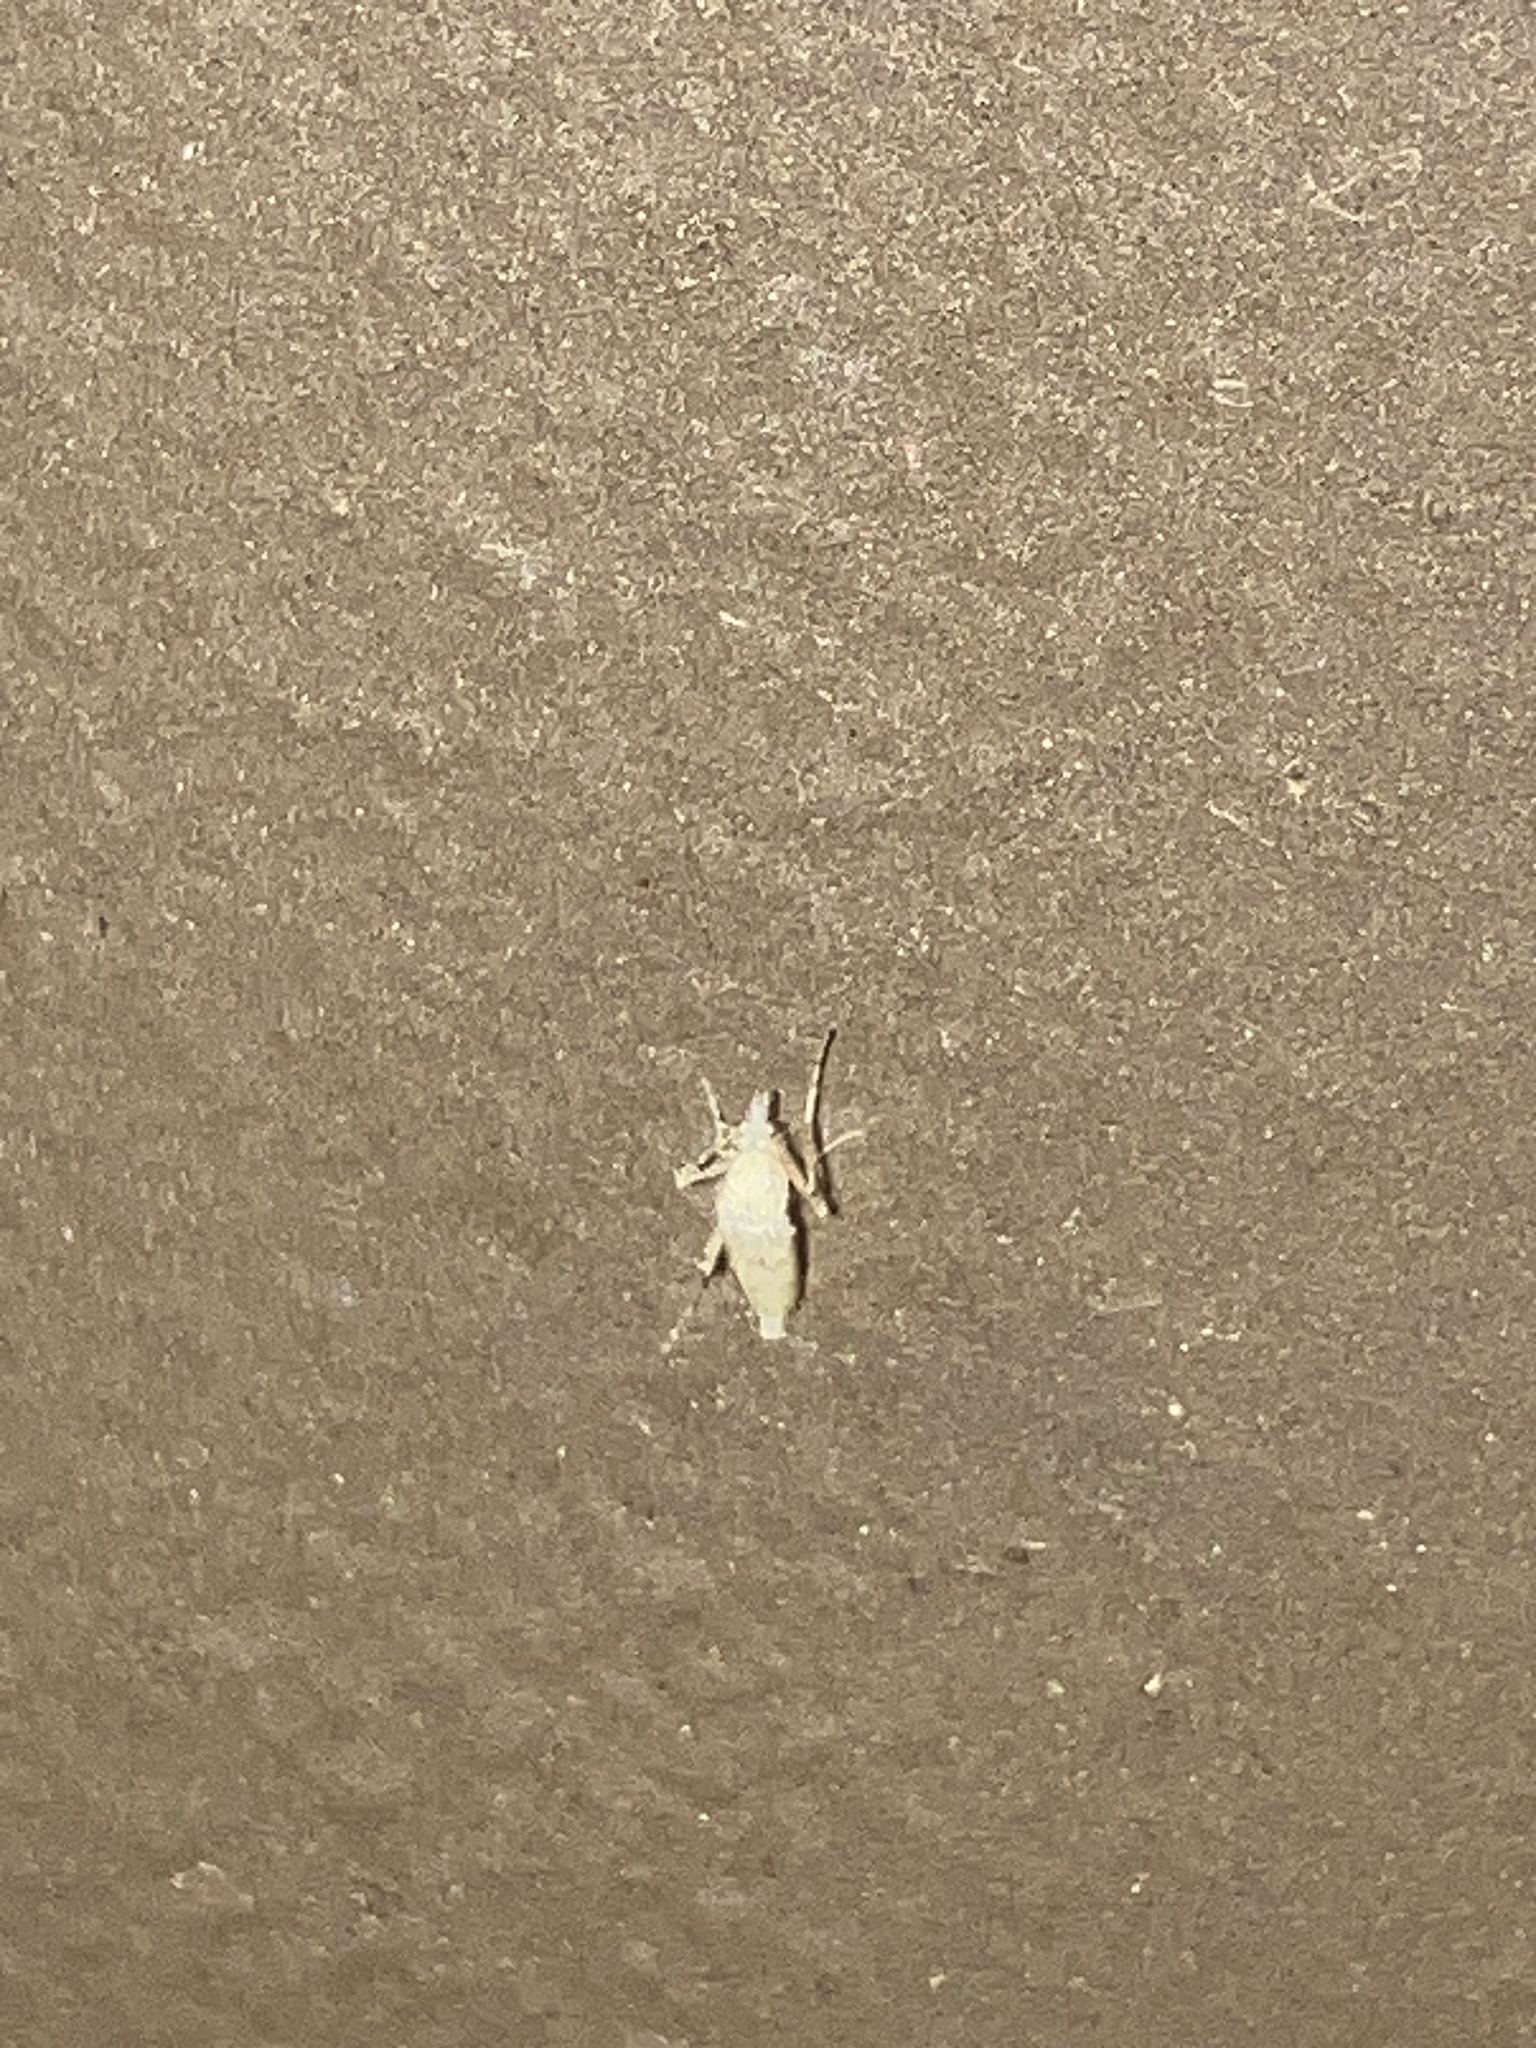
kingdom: Animalia
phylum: Arthropoda
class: Insecta
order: Diptera
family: Chaoboridae
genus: Sayomyia
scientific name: Sayomyia
